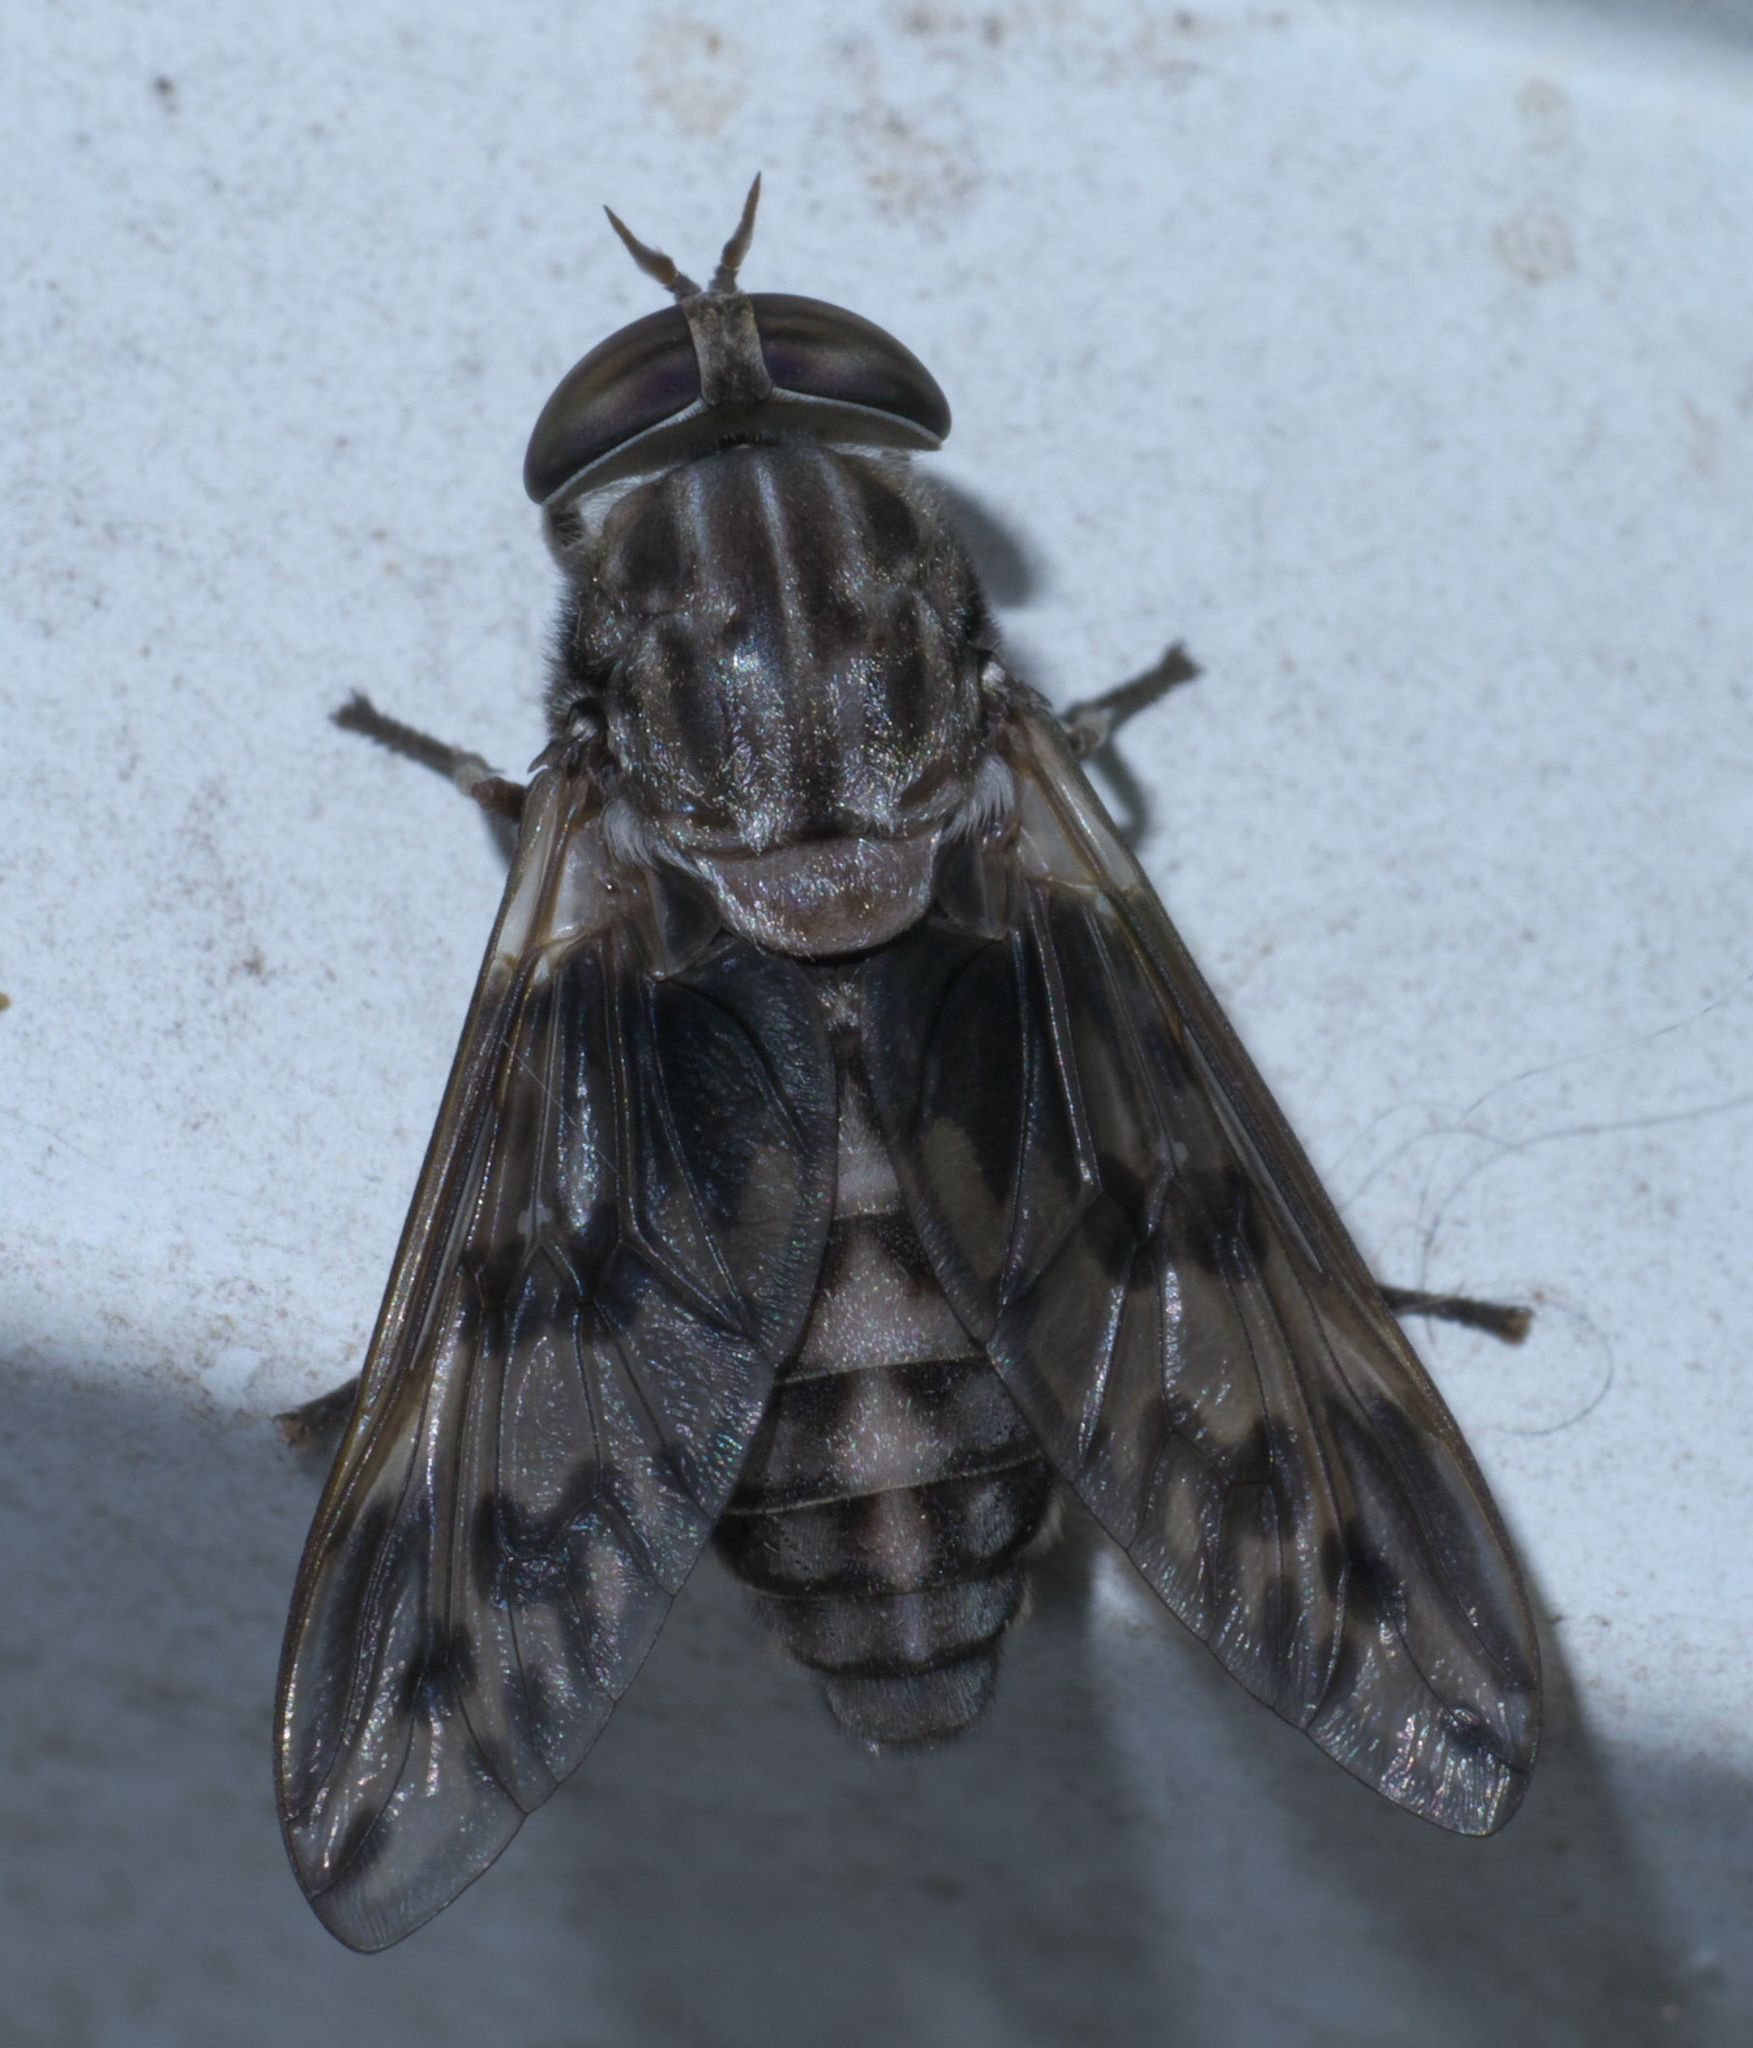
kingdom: Animalia
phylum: Arthropoda
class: Insecta
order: Diptera
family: Tabanidae
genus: Tabanus
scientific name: Tabanus venustus
